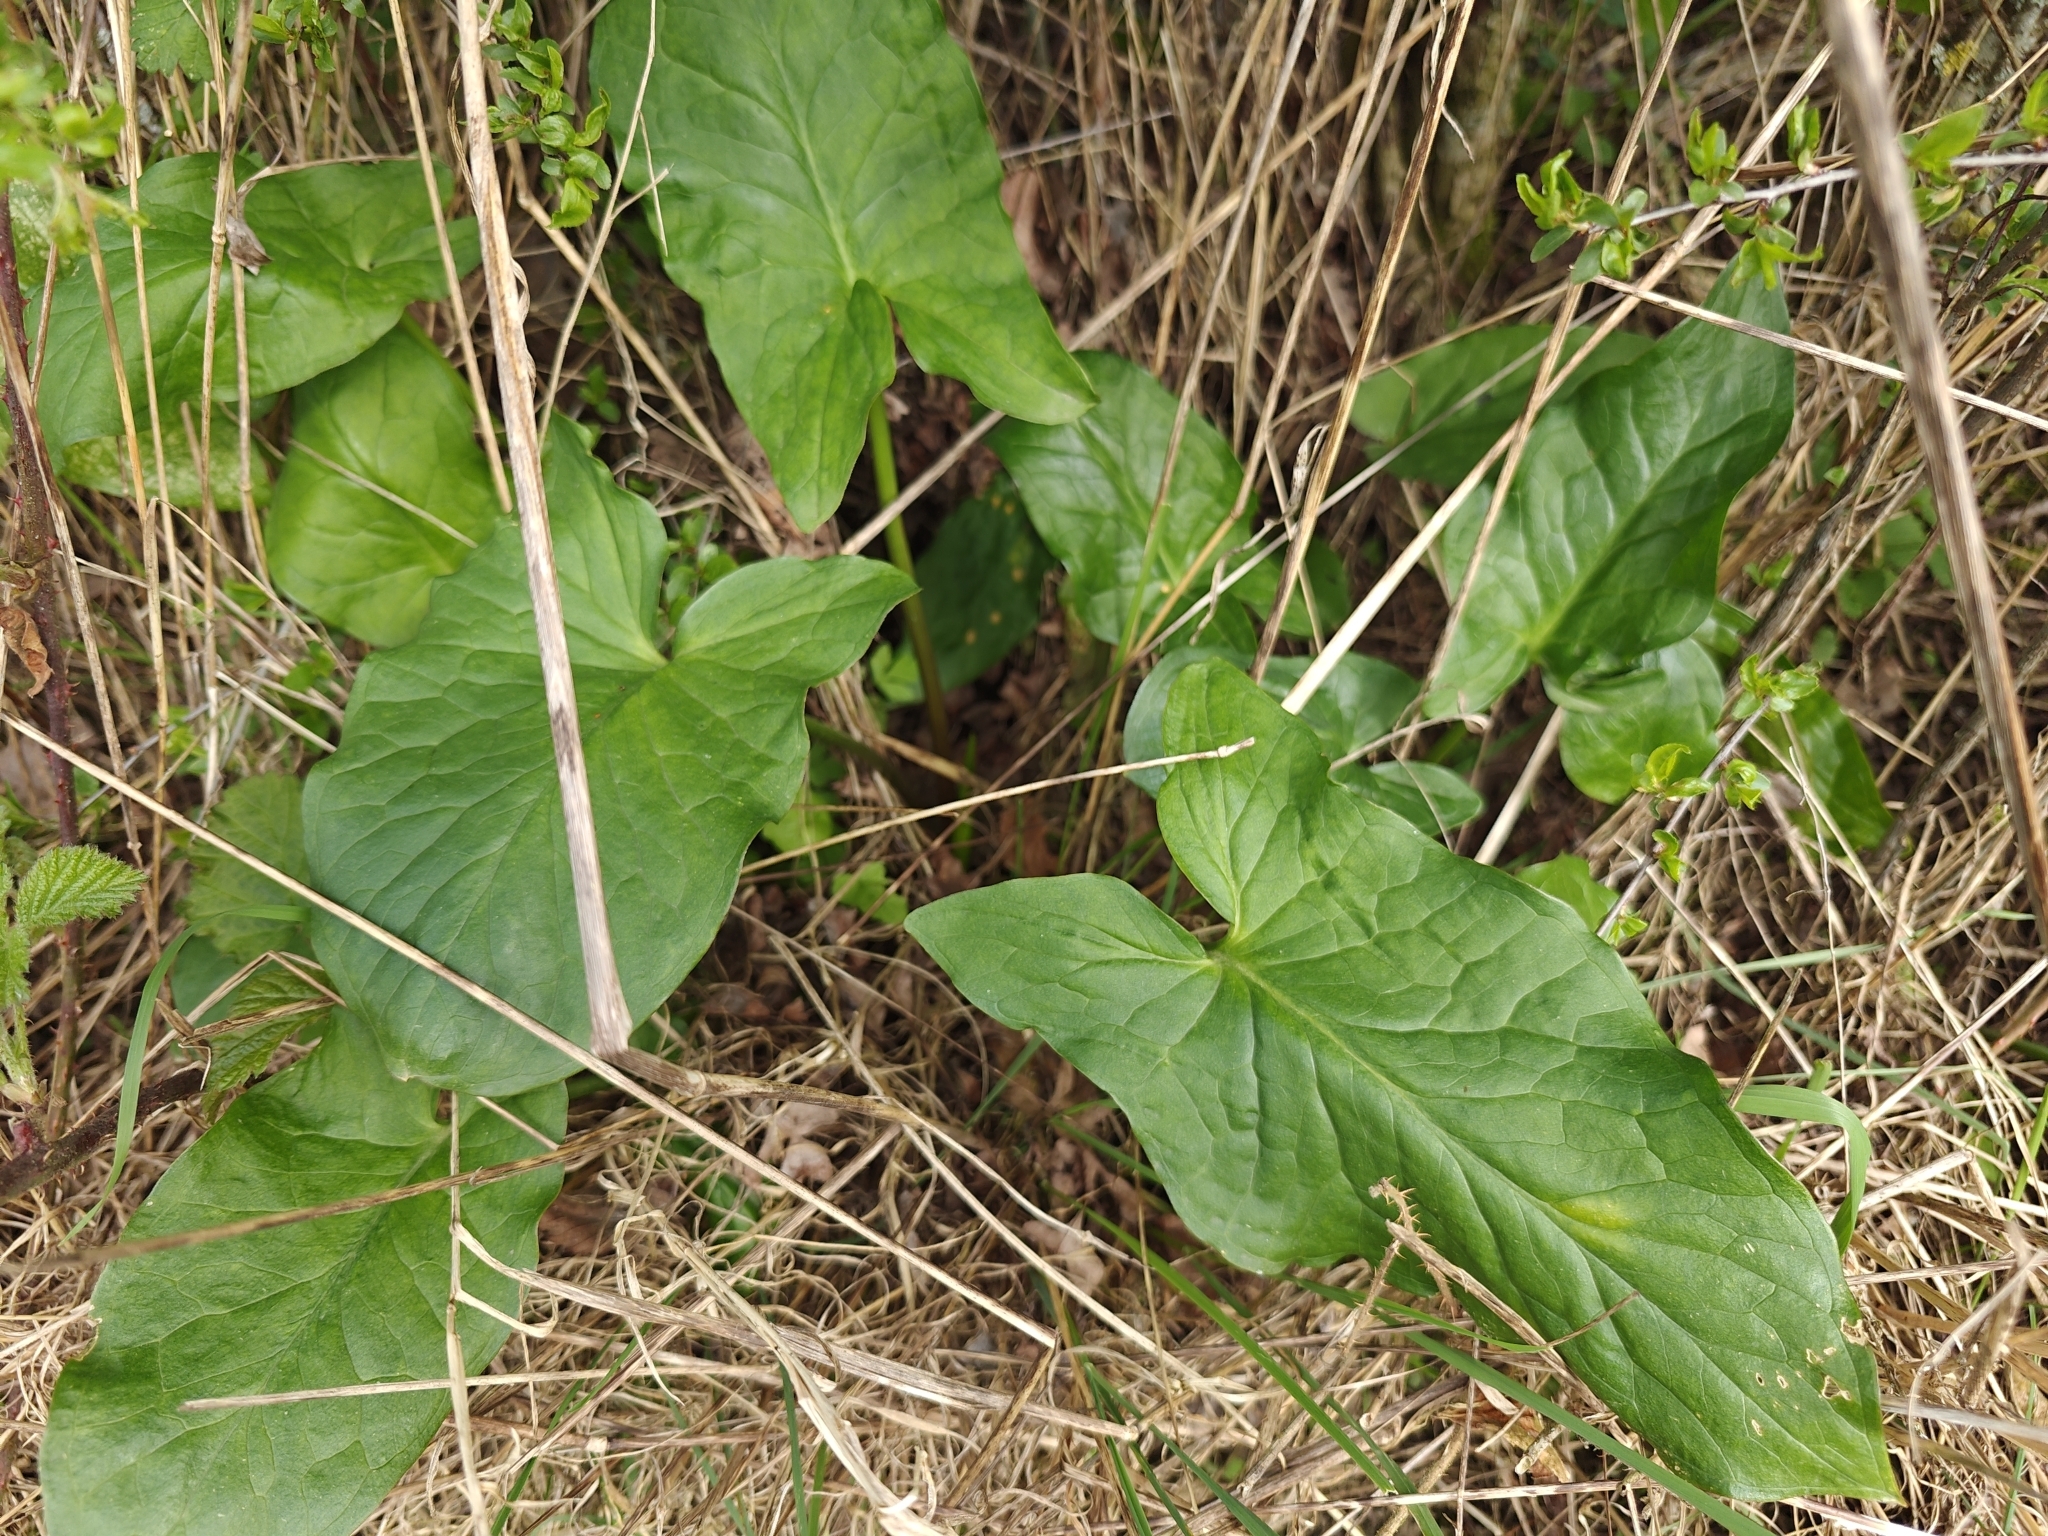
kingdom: Plantae
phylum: Tracheophyta
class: Liliopsida
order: Alismatales
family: Araceae
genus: Arum
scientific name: Arum maculatum
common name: Lords-and-ladies
